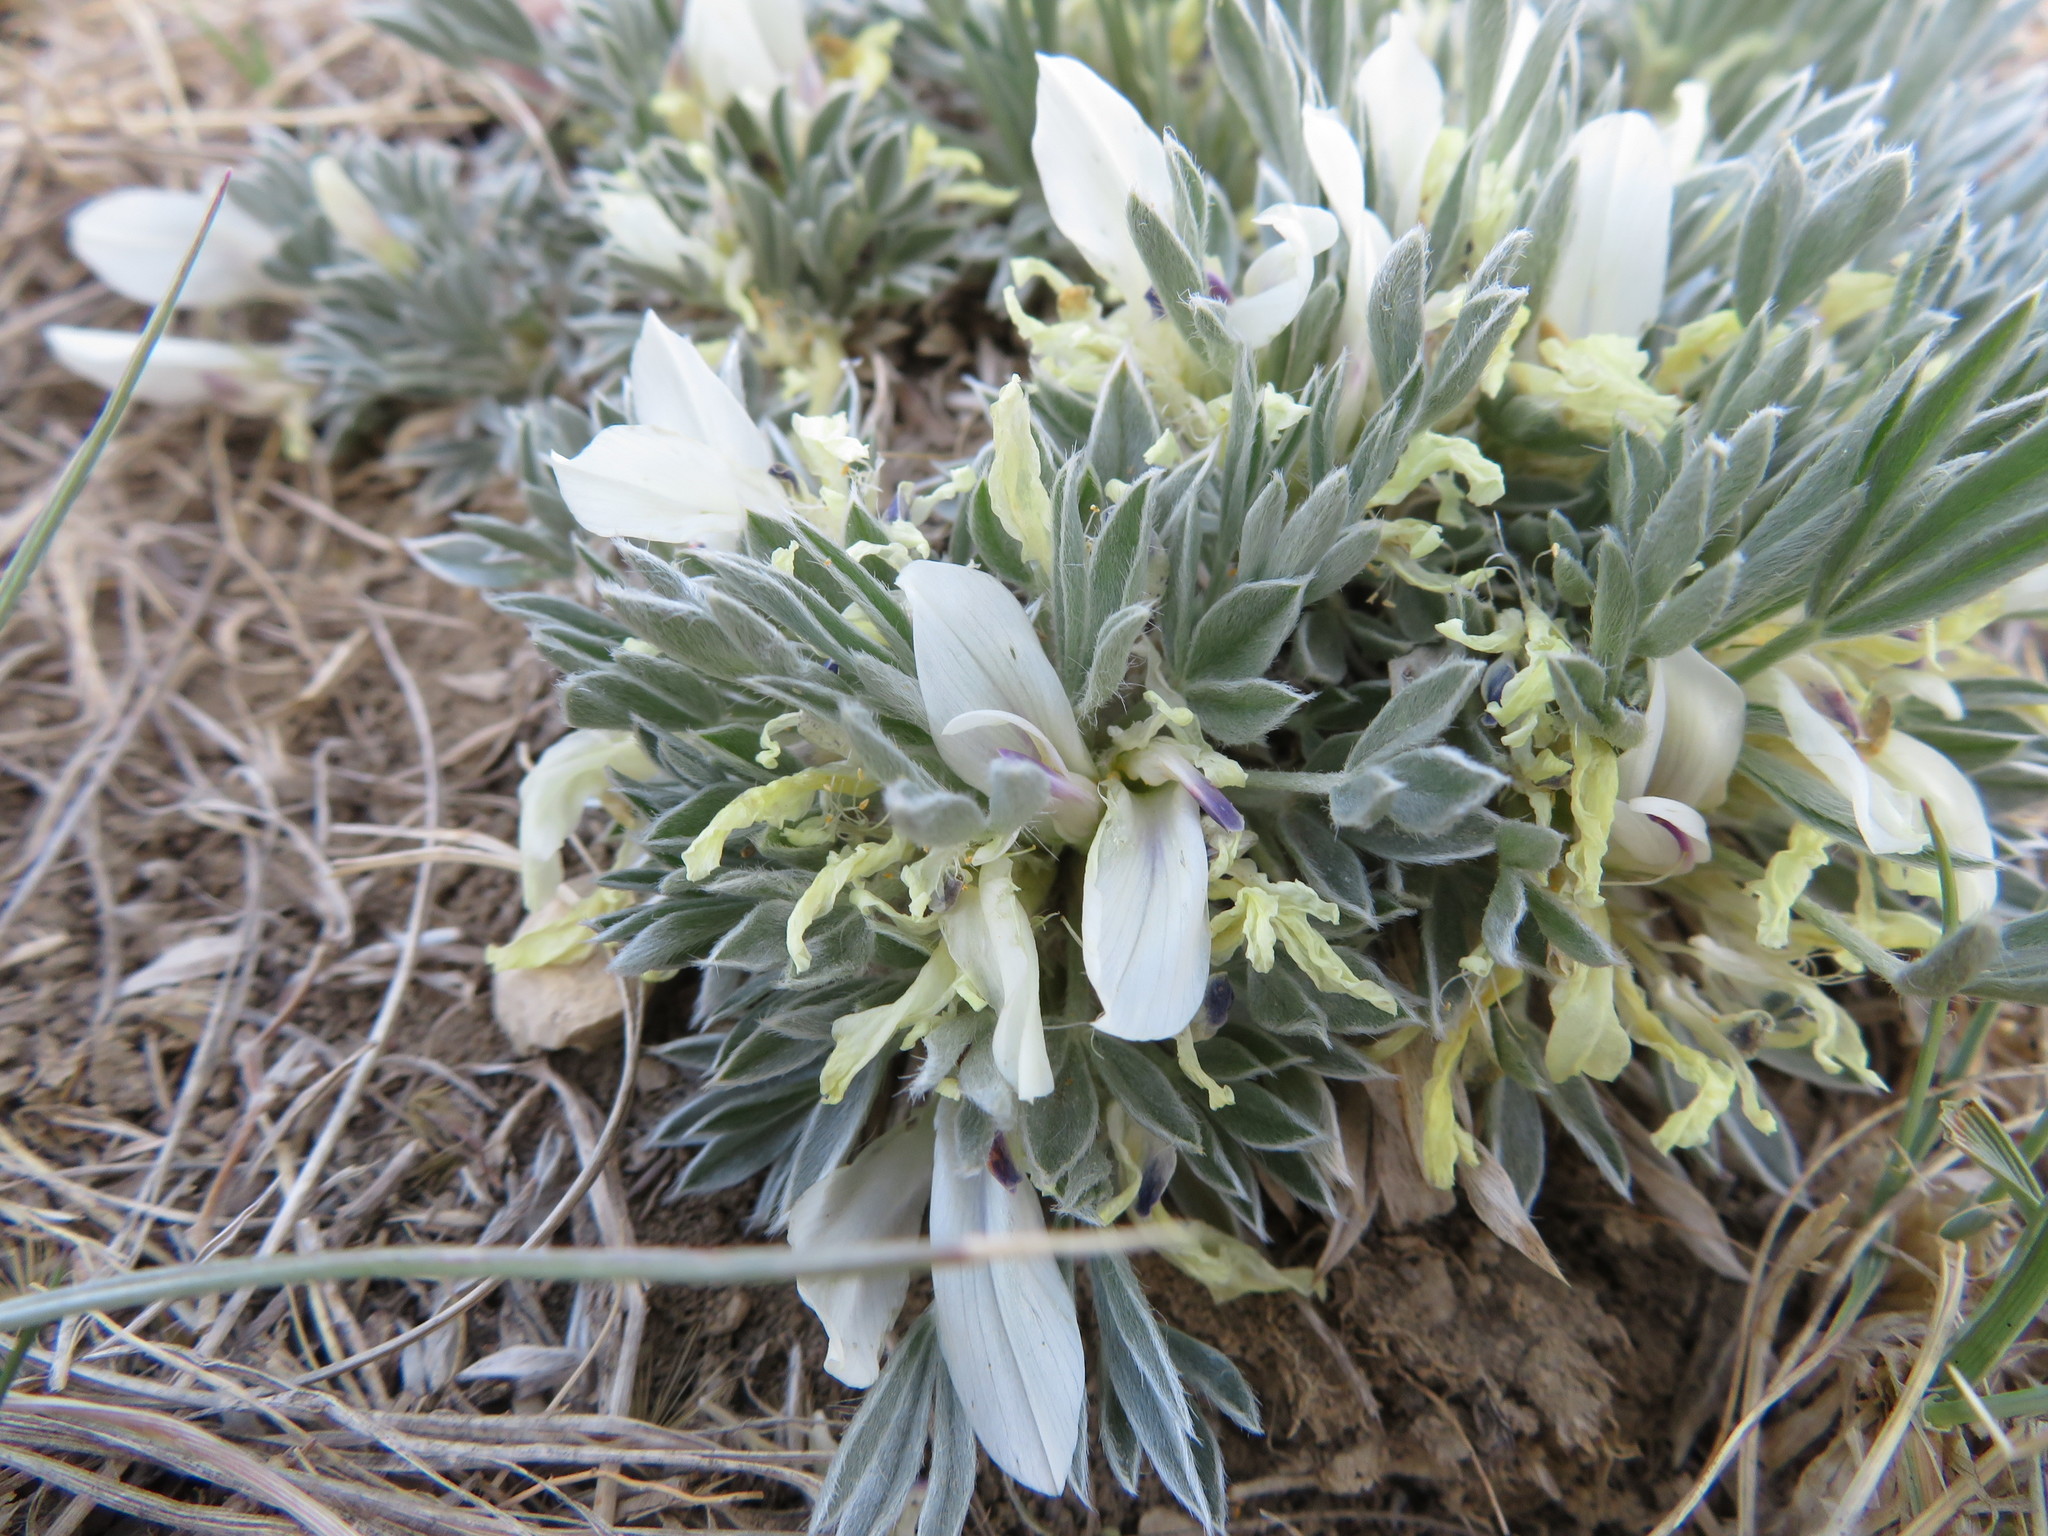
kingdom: Plantae
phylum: Tracheophyta
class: Magnoliopsida
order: Fabales
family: Fabaceae
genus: Astragalus
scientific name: Astragalus gilviflorus
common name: Cushion milk-vetch
